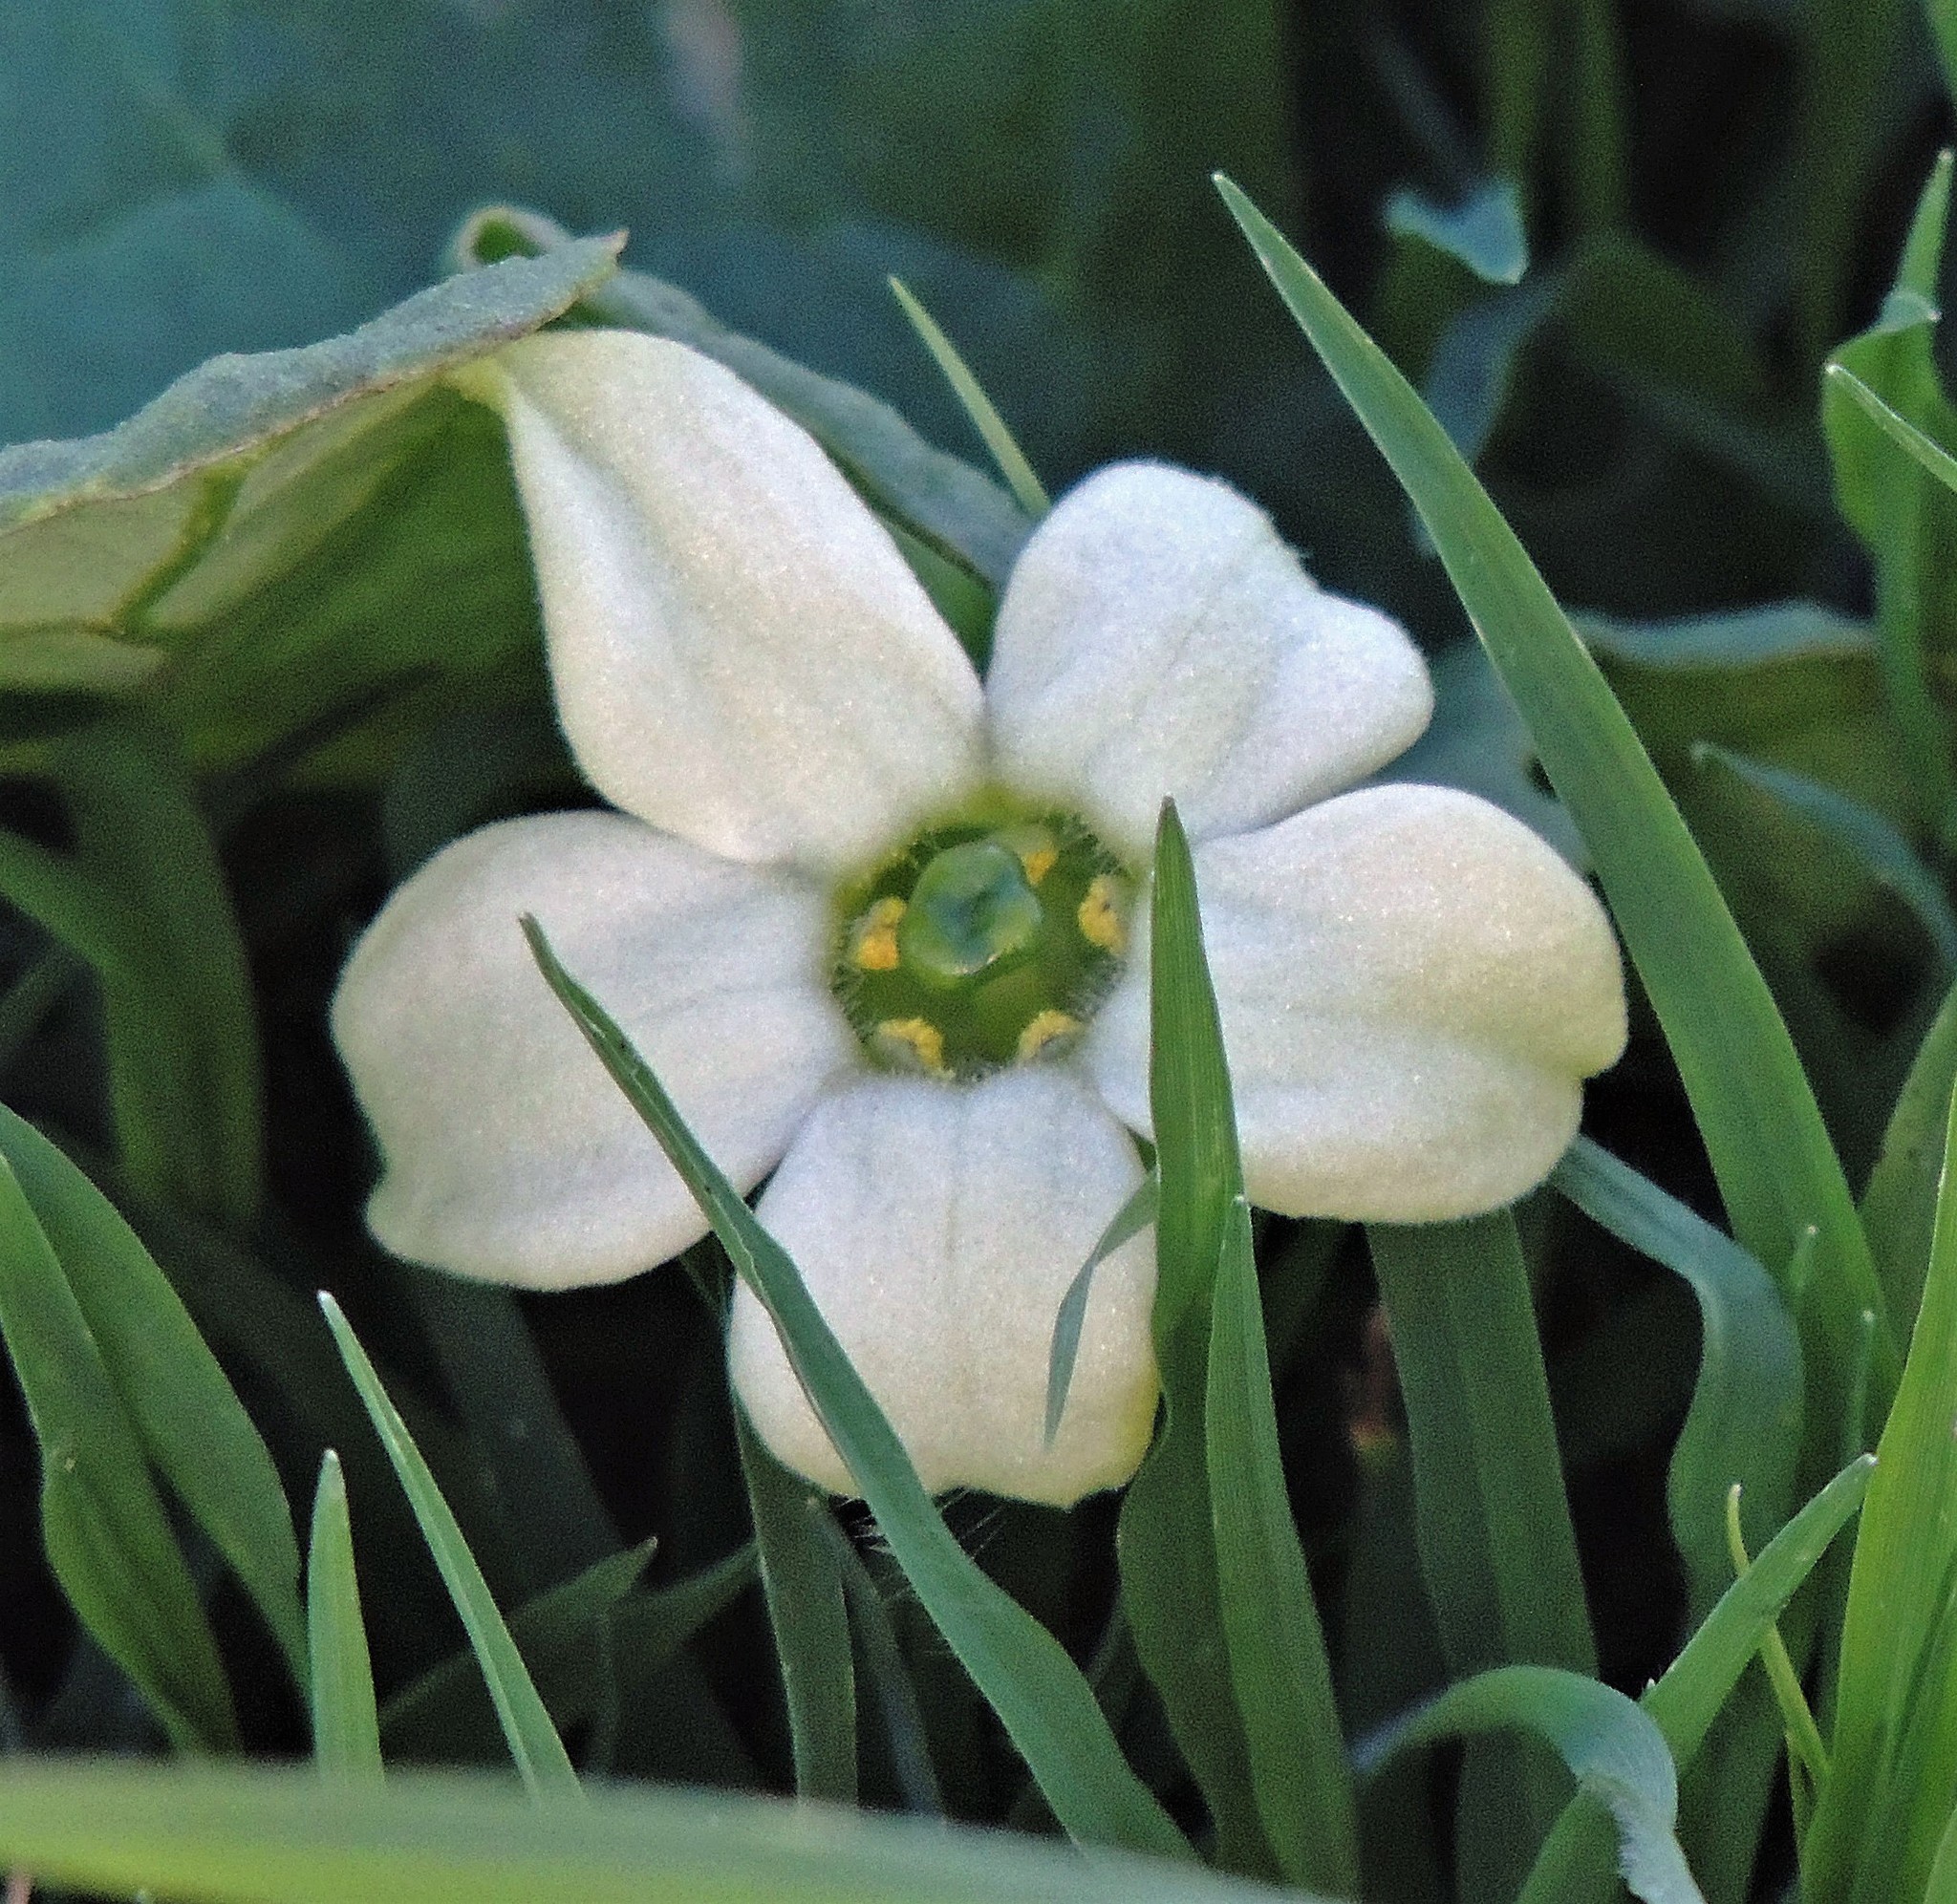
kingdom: Plantae
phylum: Tracheophyta
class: Magnoliopsida
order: Solanales
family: Solanaceae
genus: Jaborosa
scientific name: Jaborosa runcinata
